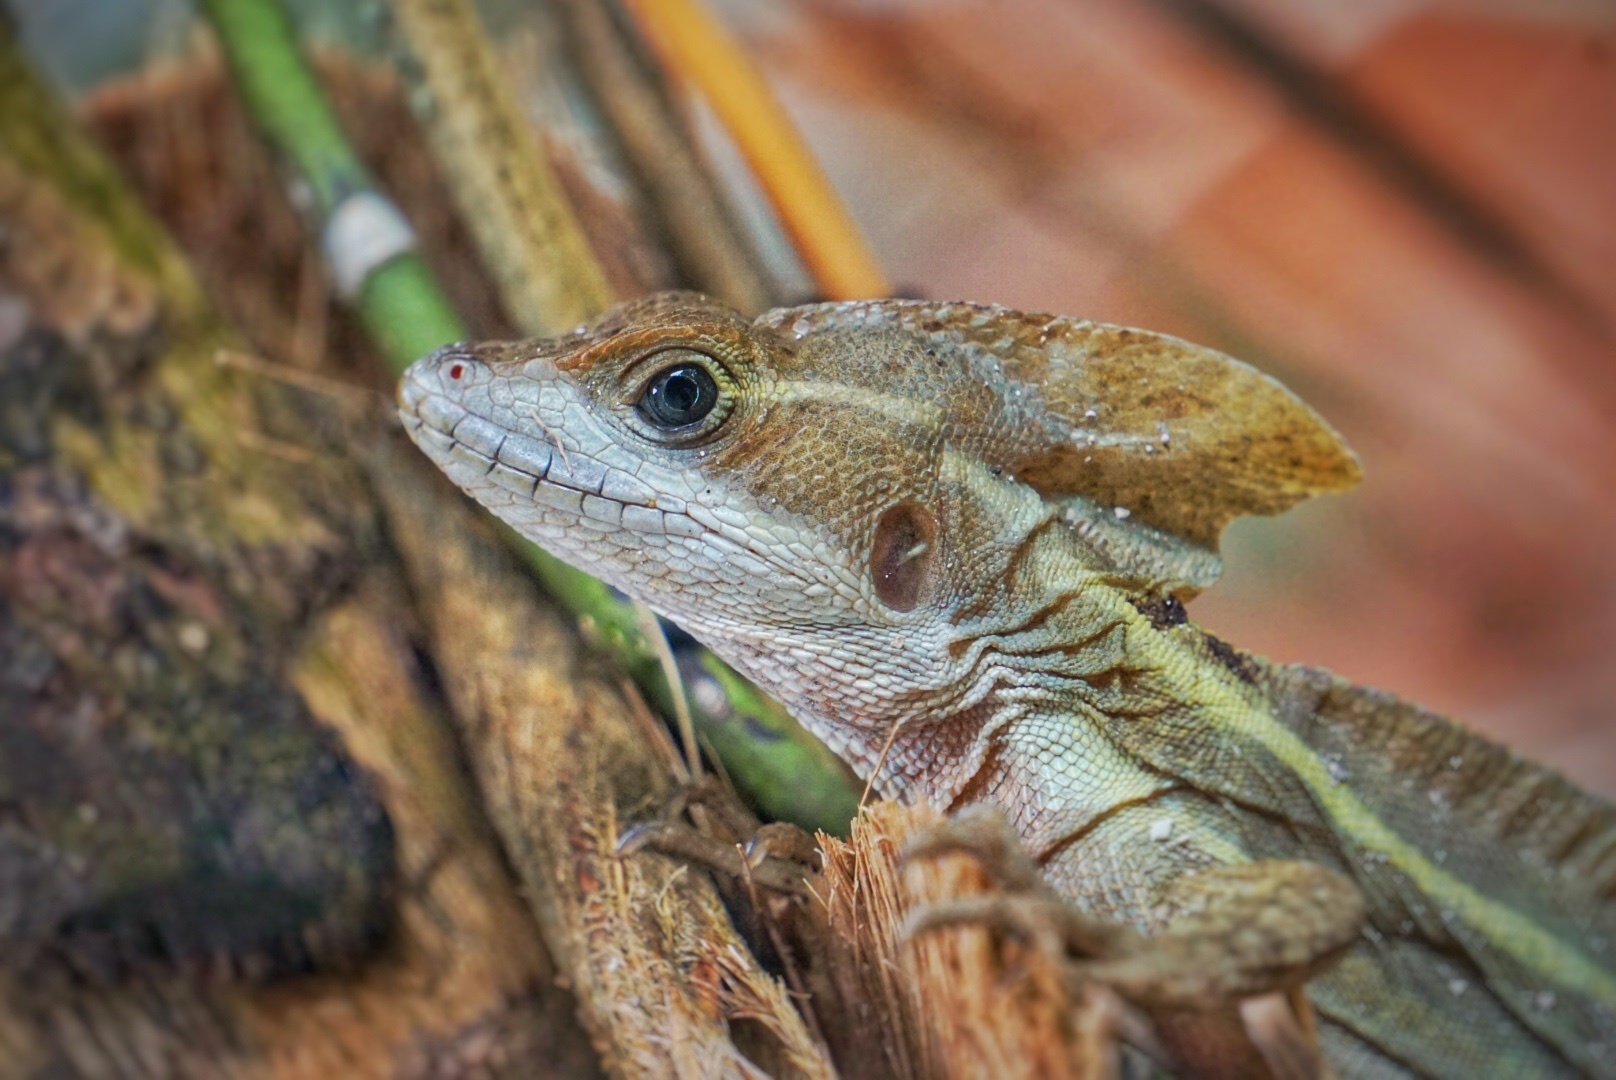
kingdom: Animalia
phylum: Chordata
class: Squamata
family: Corytophanidae
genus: Basiliscus
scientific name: Basiliscus vittatus
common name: Brown basilisk
